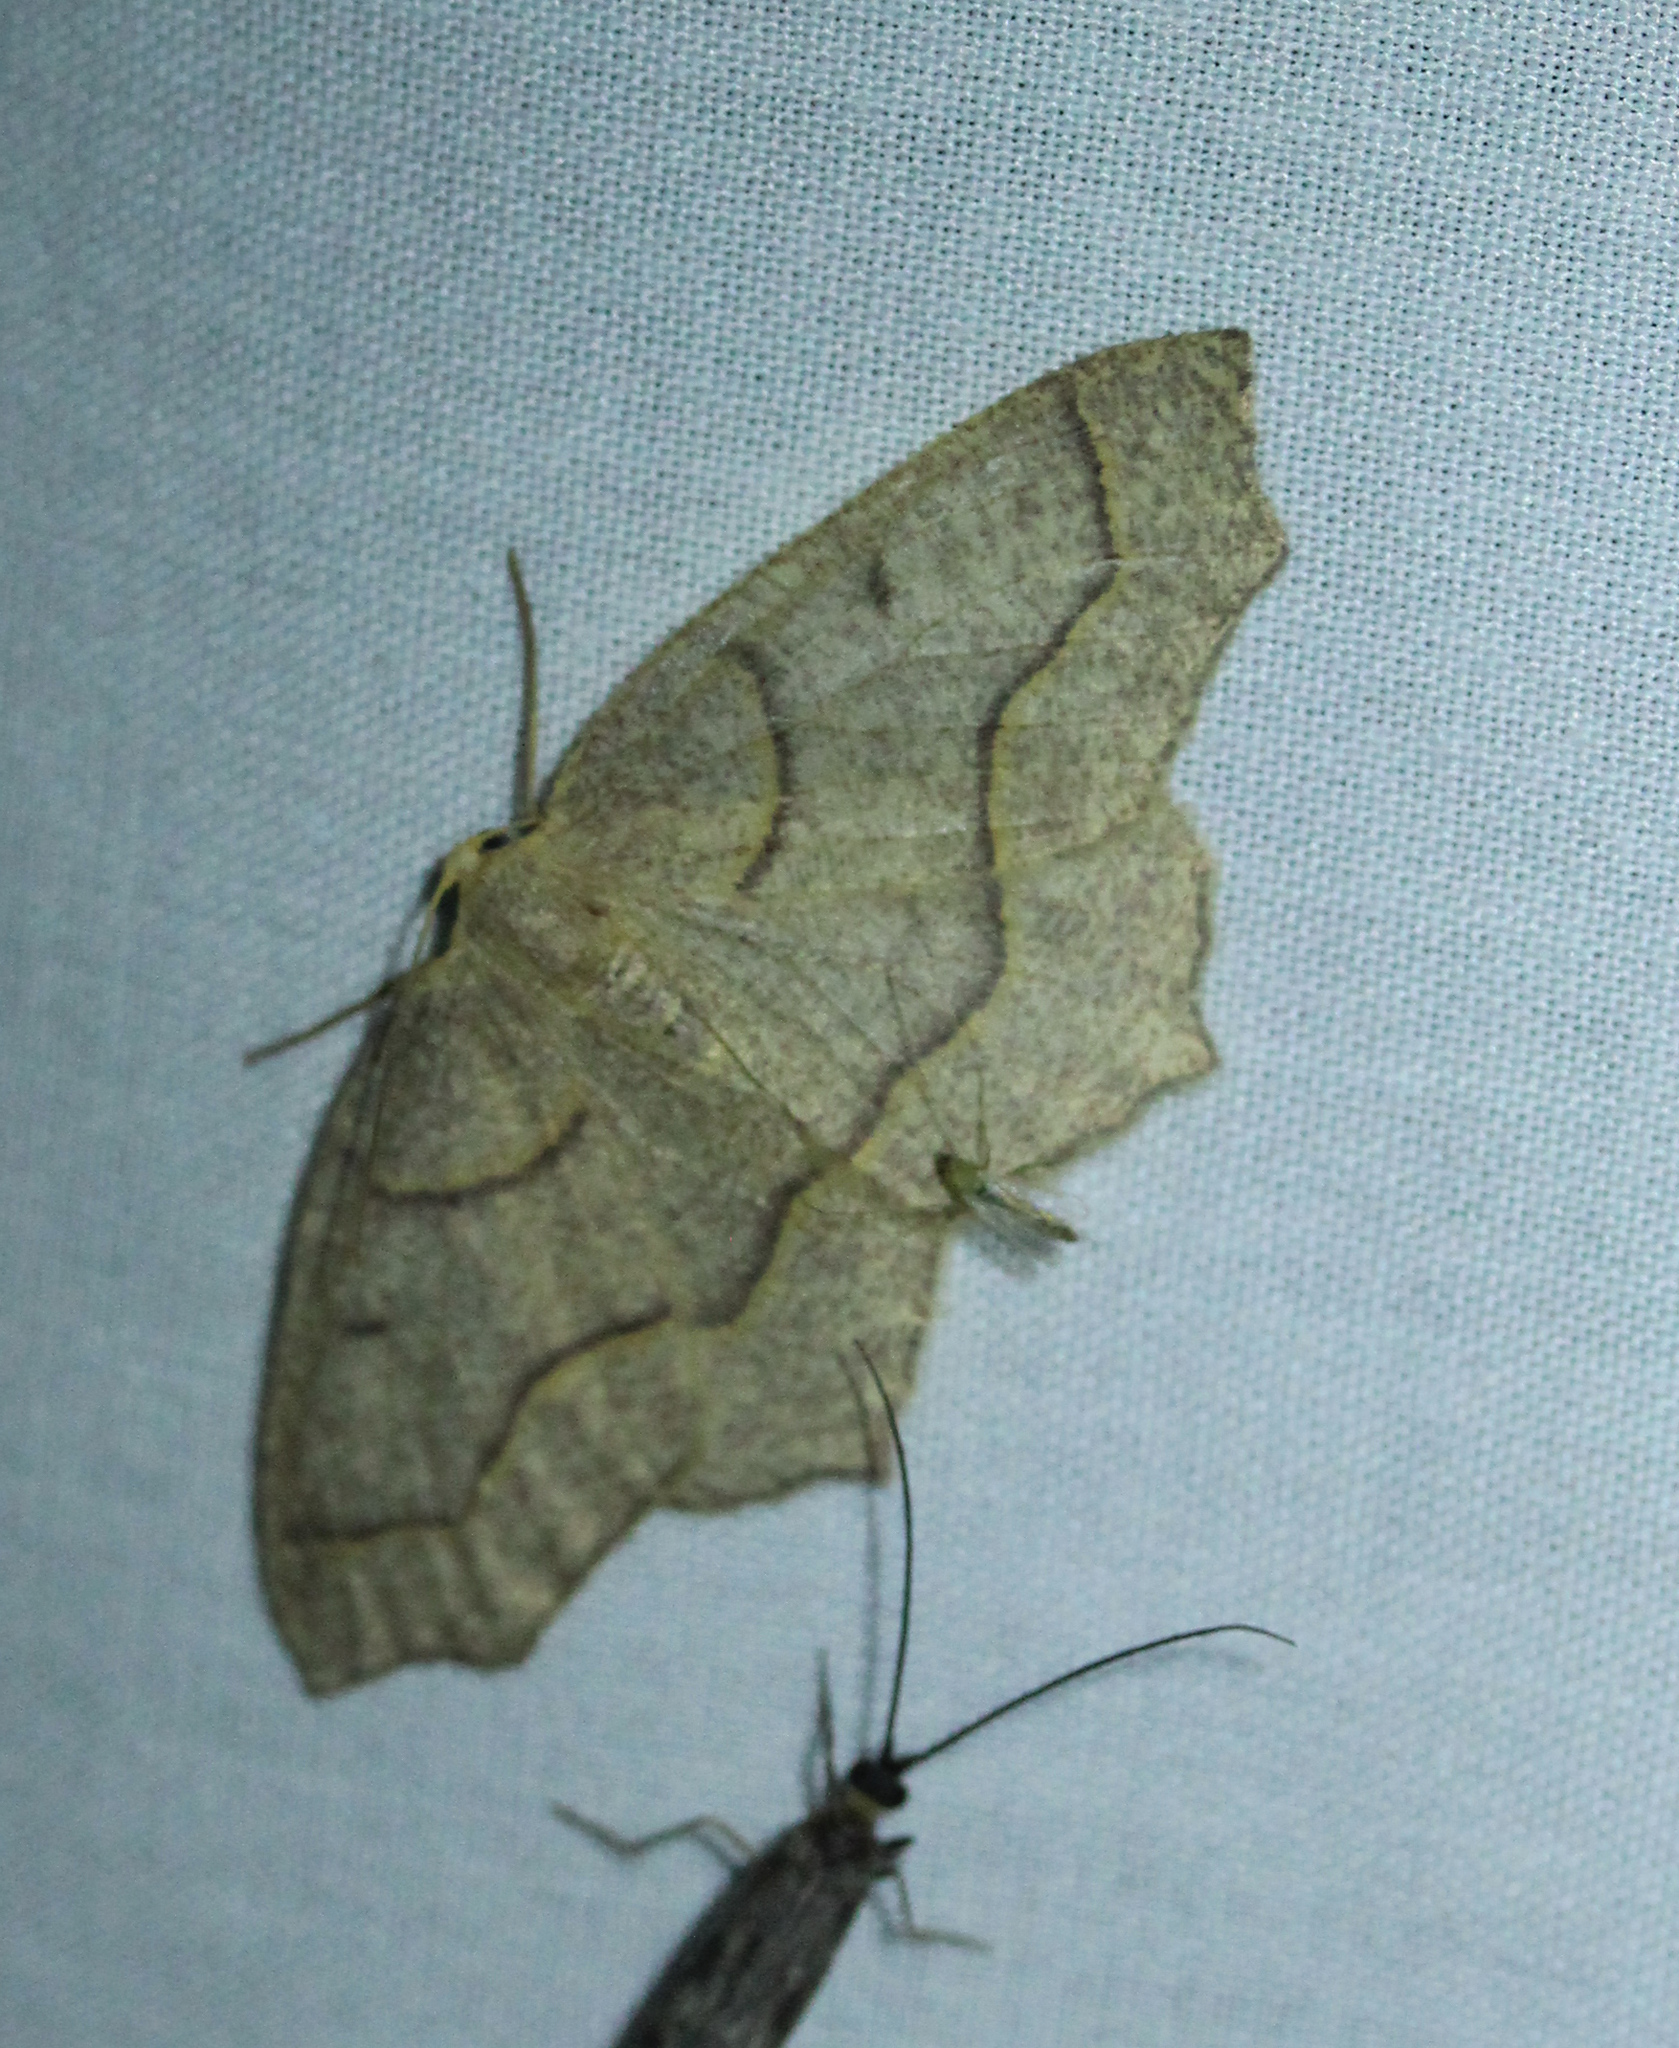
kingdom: Animalia
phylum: Arthropoda
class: Insecta
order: Lepidoptera
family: Geometridae
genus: Lambdina
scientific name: Lambdina fiscellaria
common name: Hemlock looper
